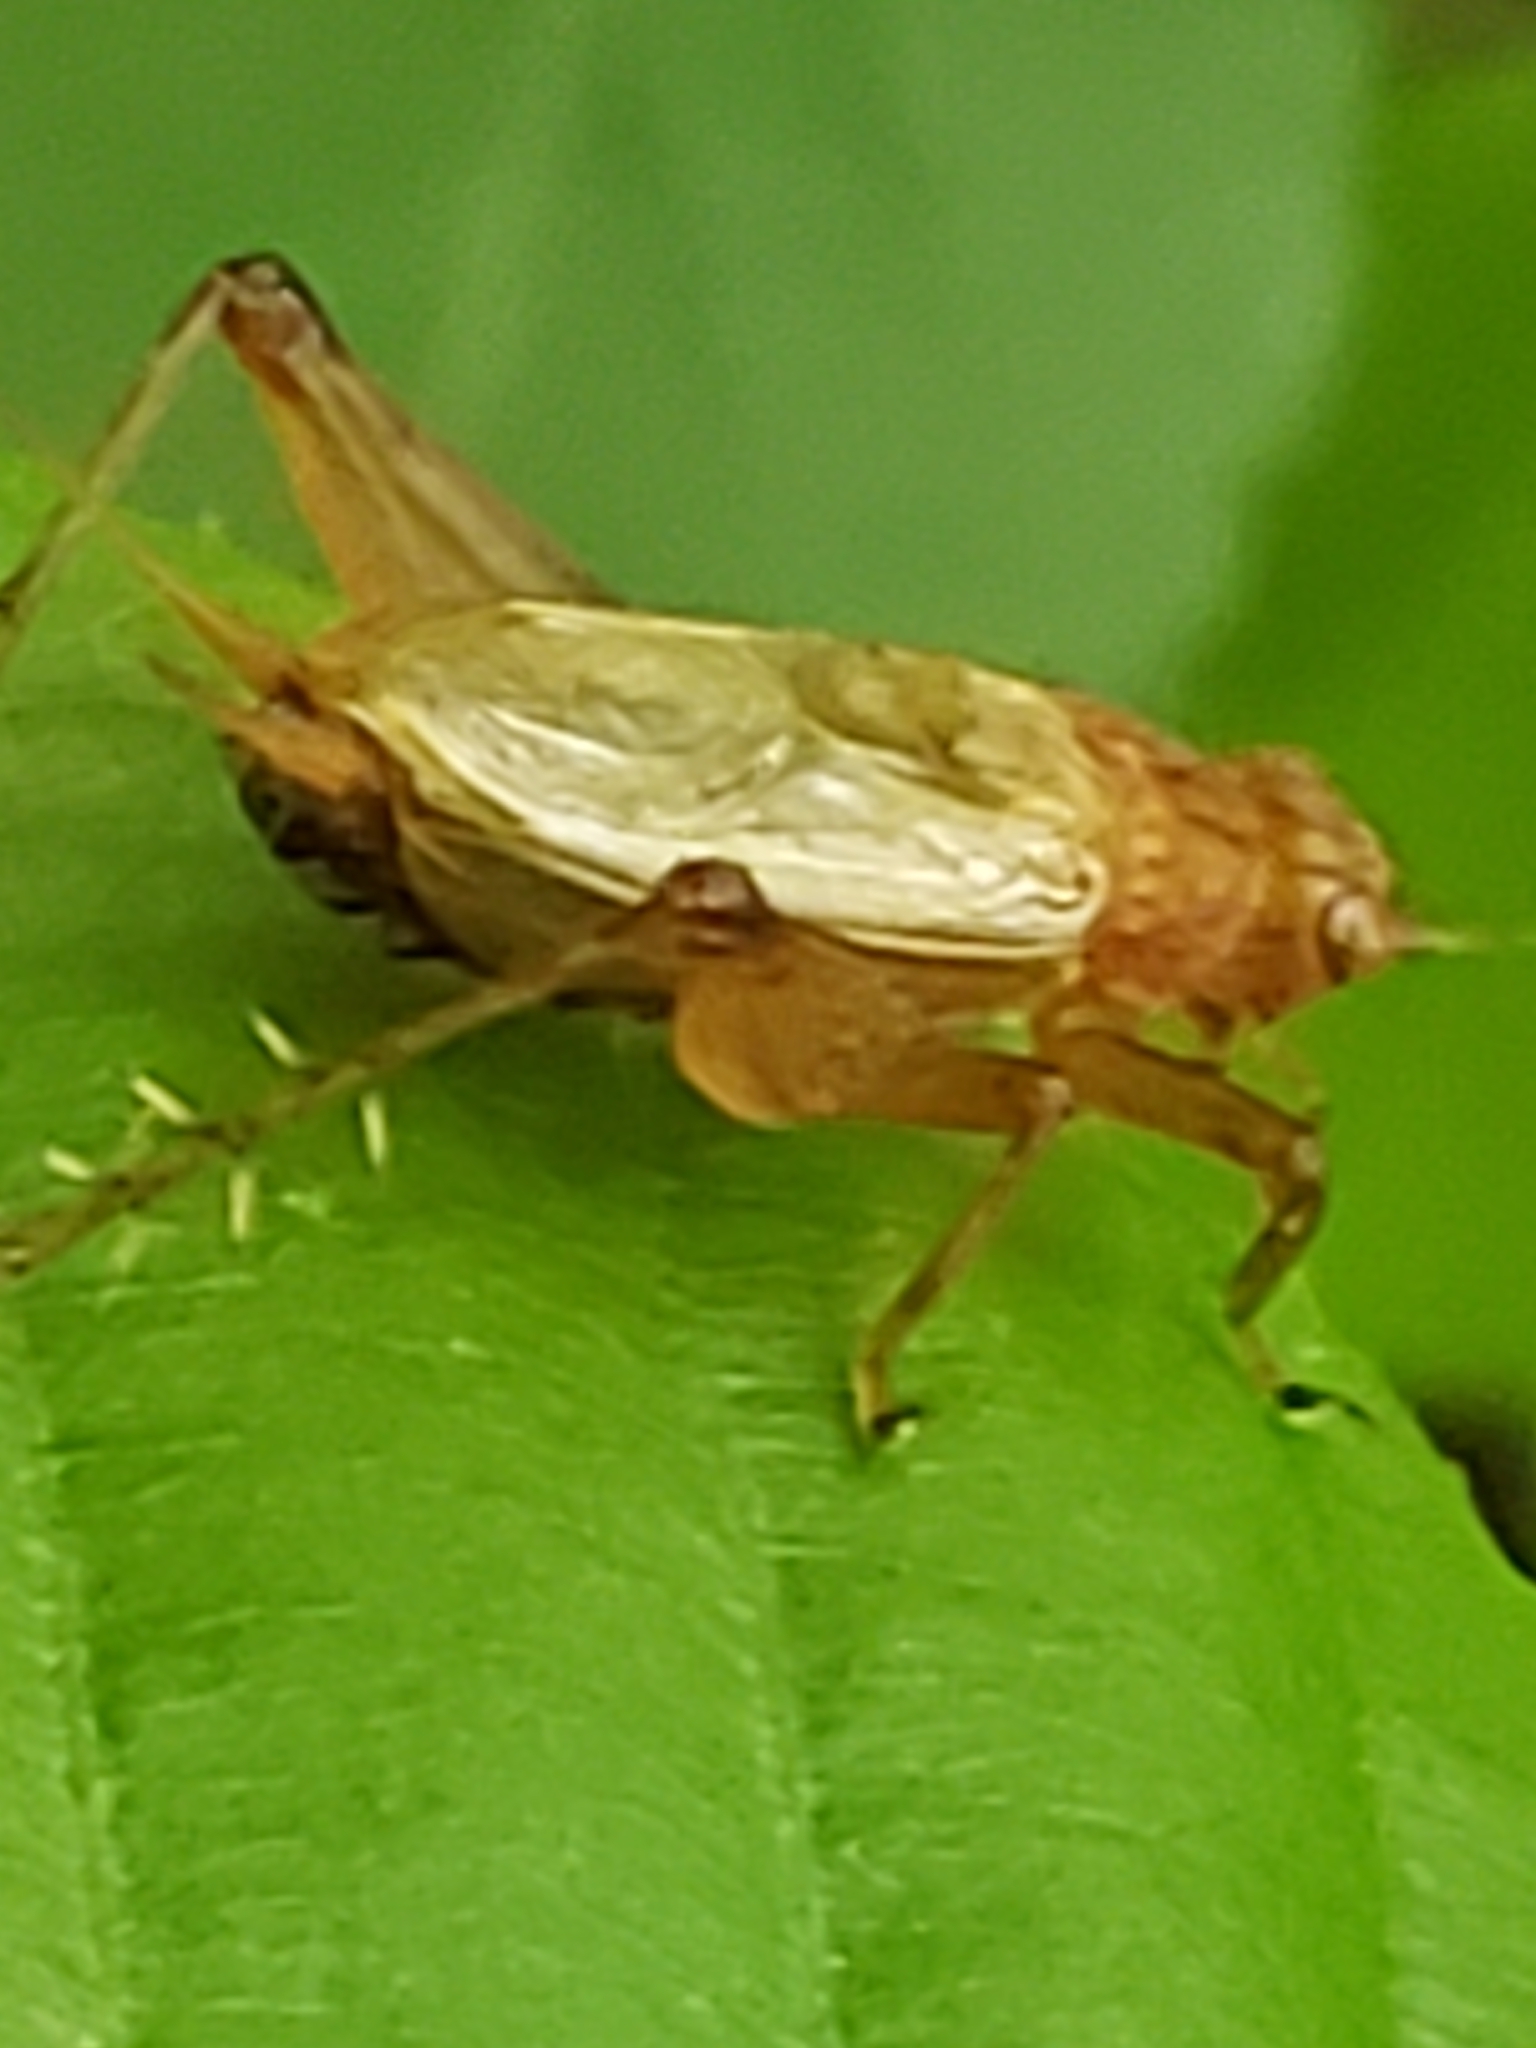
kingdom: Animalia
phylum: Arthropoda
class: Insecta
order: Orthoptera
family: Trigonidiidae
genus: Anaxipha
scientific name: Anaxipha vernalis
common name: Spring trig
